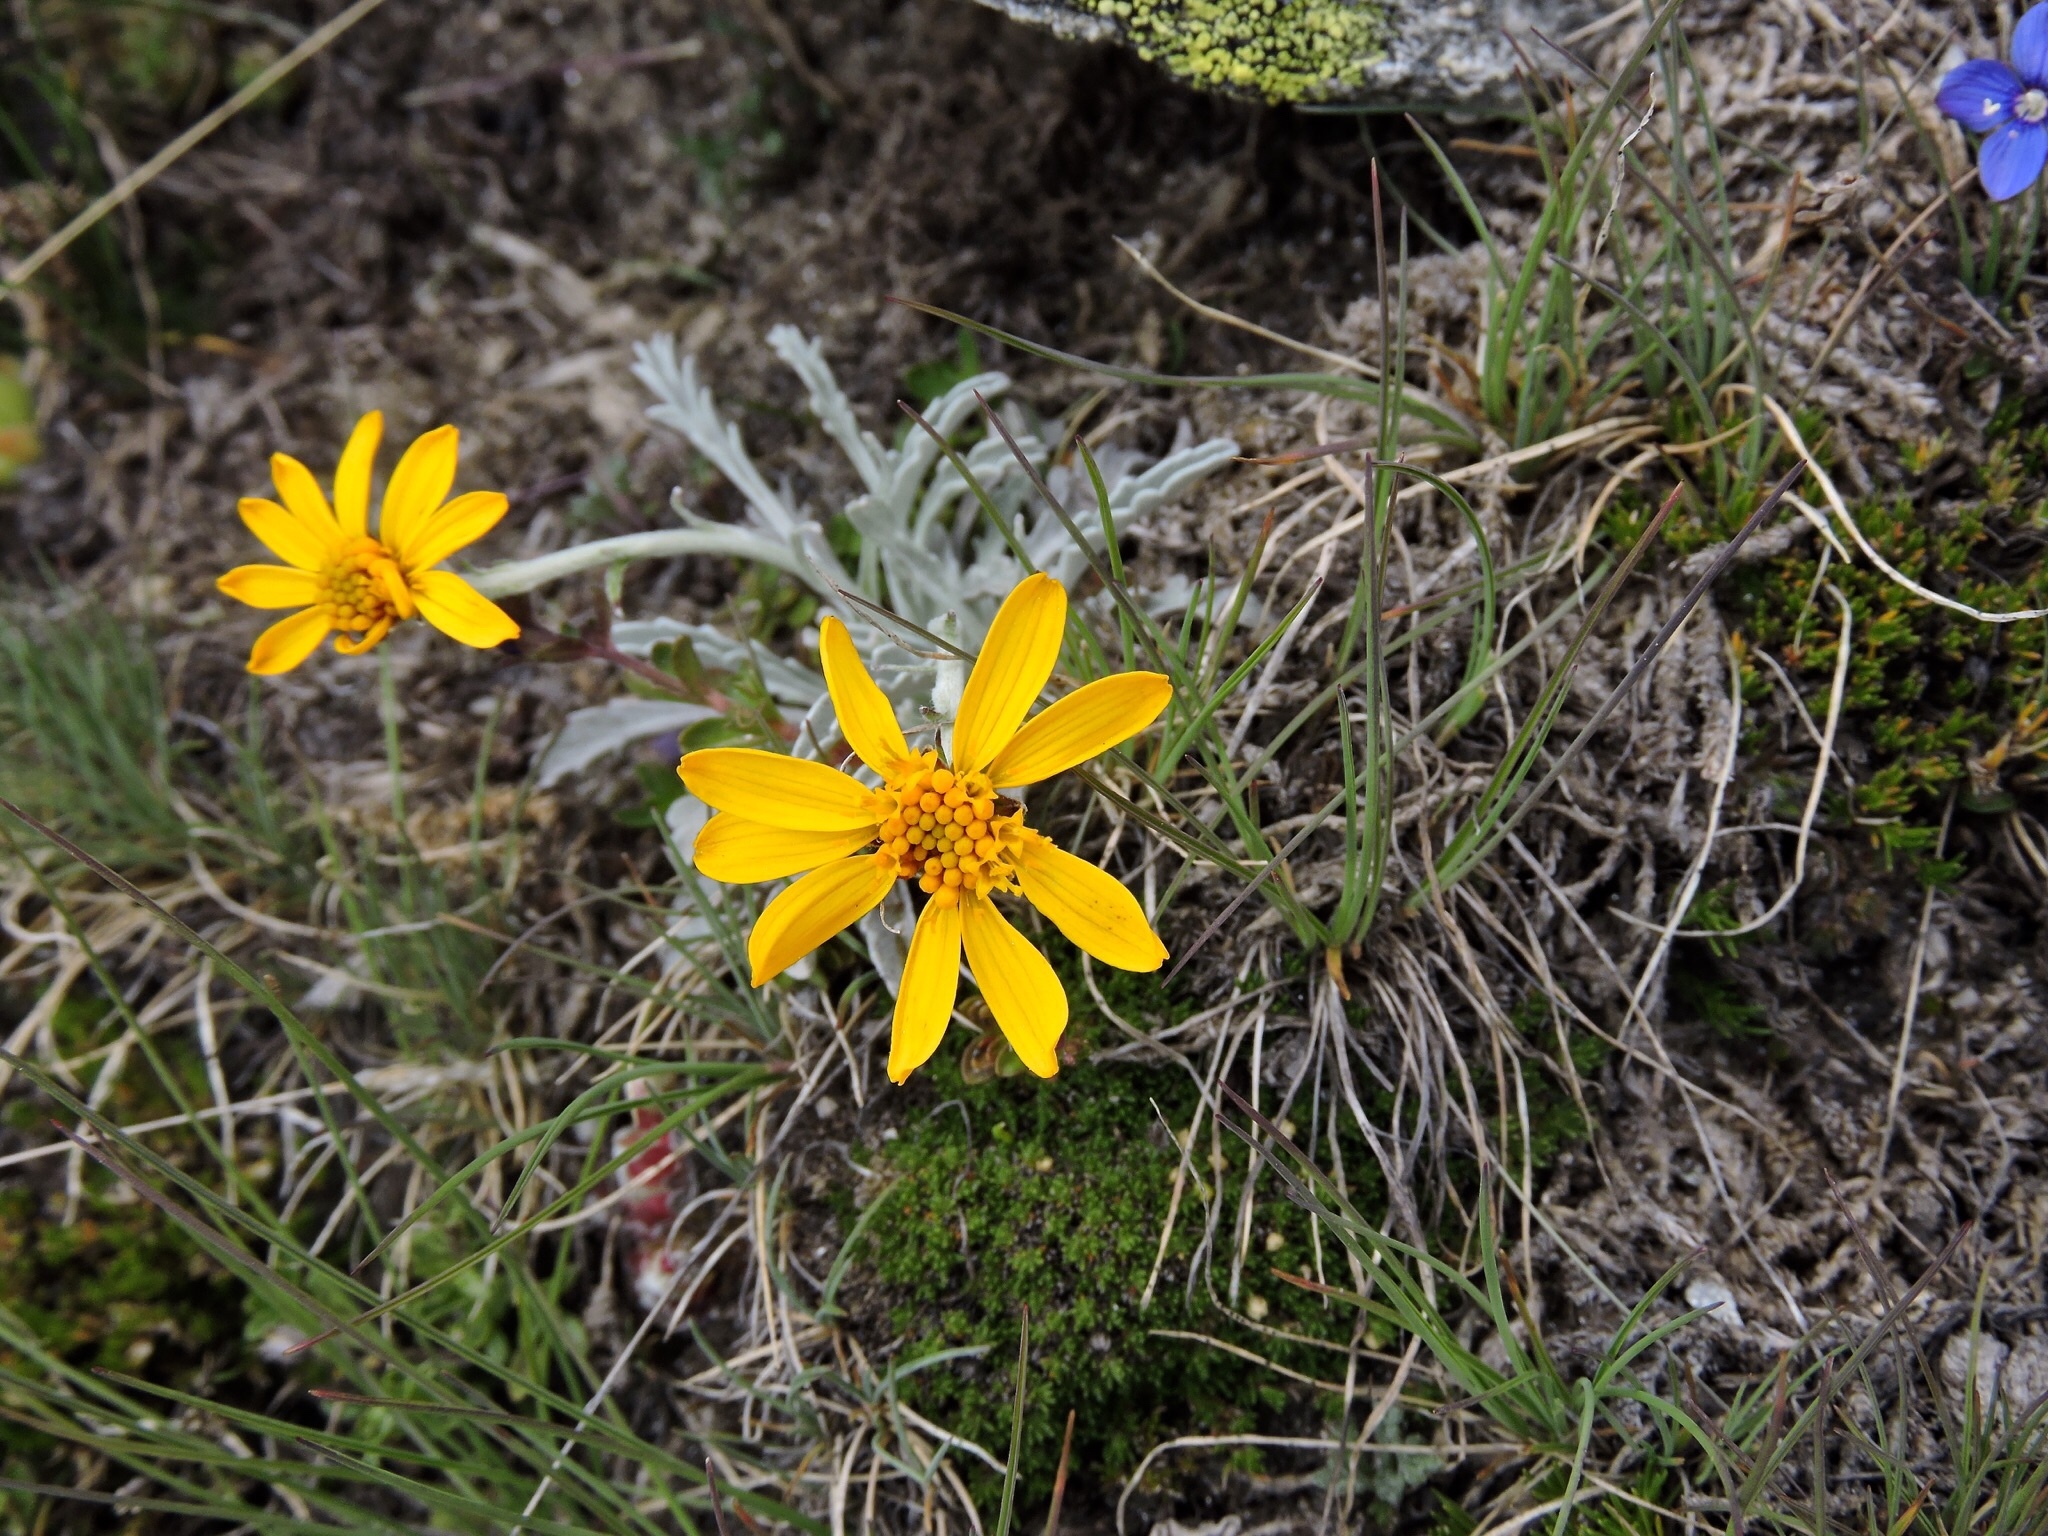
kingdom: Plantae
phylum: Tracheophyta
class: Magnoliopsida
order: Asterales
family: Asteraceae
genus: Jacobaea
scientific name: Jacobaea uniflora
